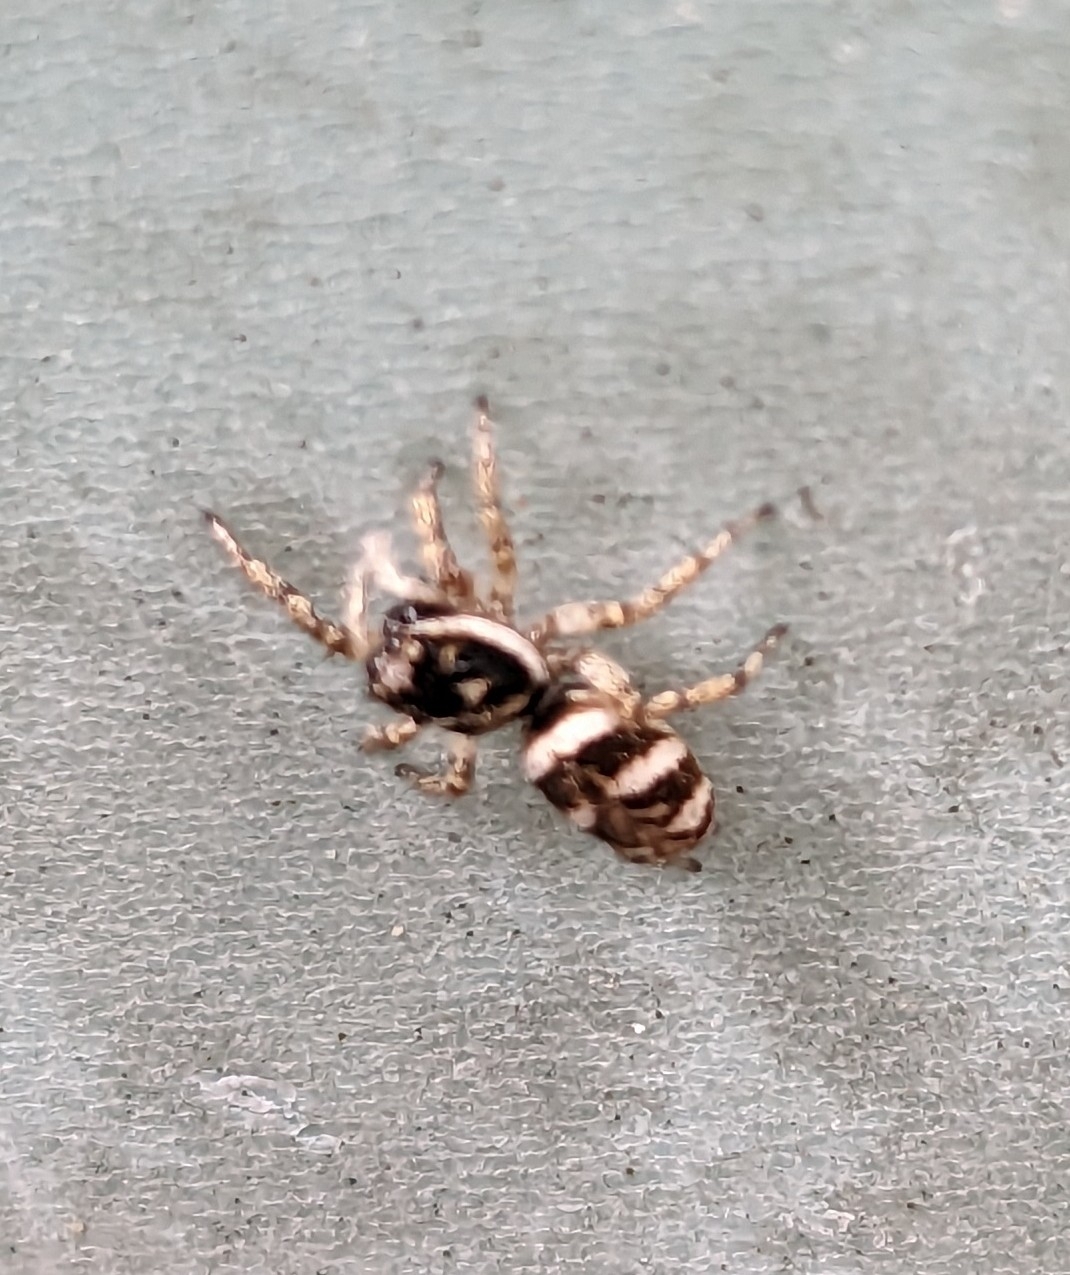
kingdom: Animalia
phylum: Arthropoda
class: Arachnida
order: Araneae
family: Salticidae
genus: Salticus
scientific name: Salticus scenicus
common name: Zebra jumper
